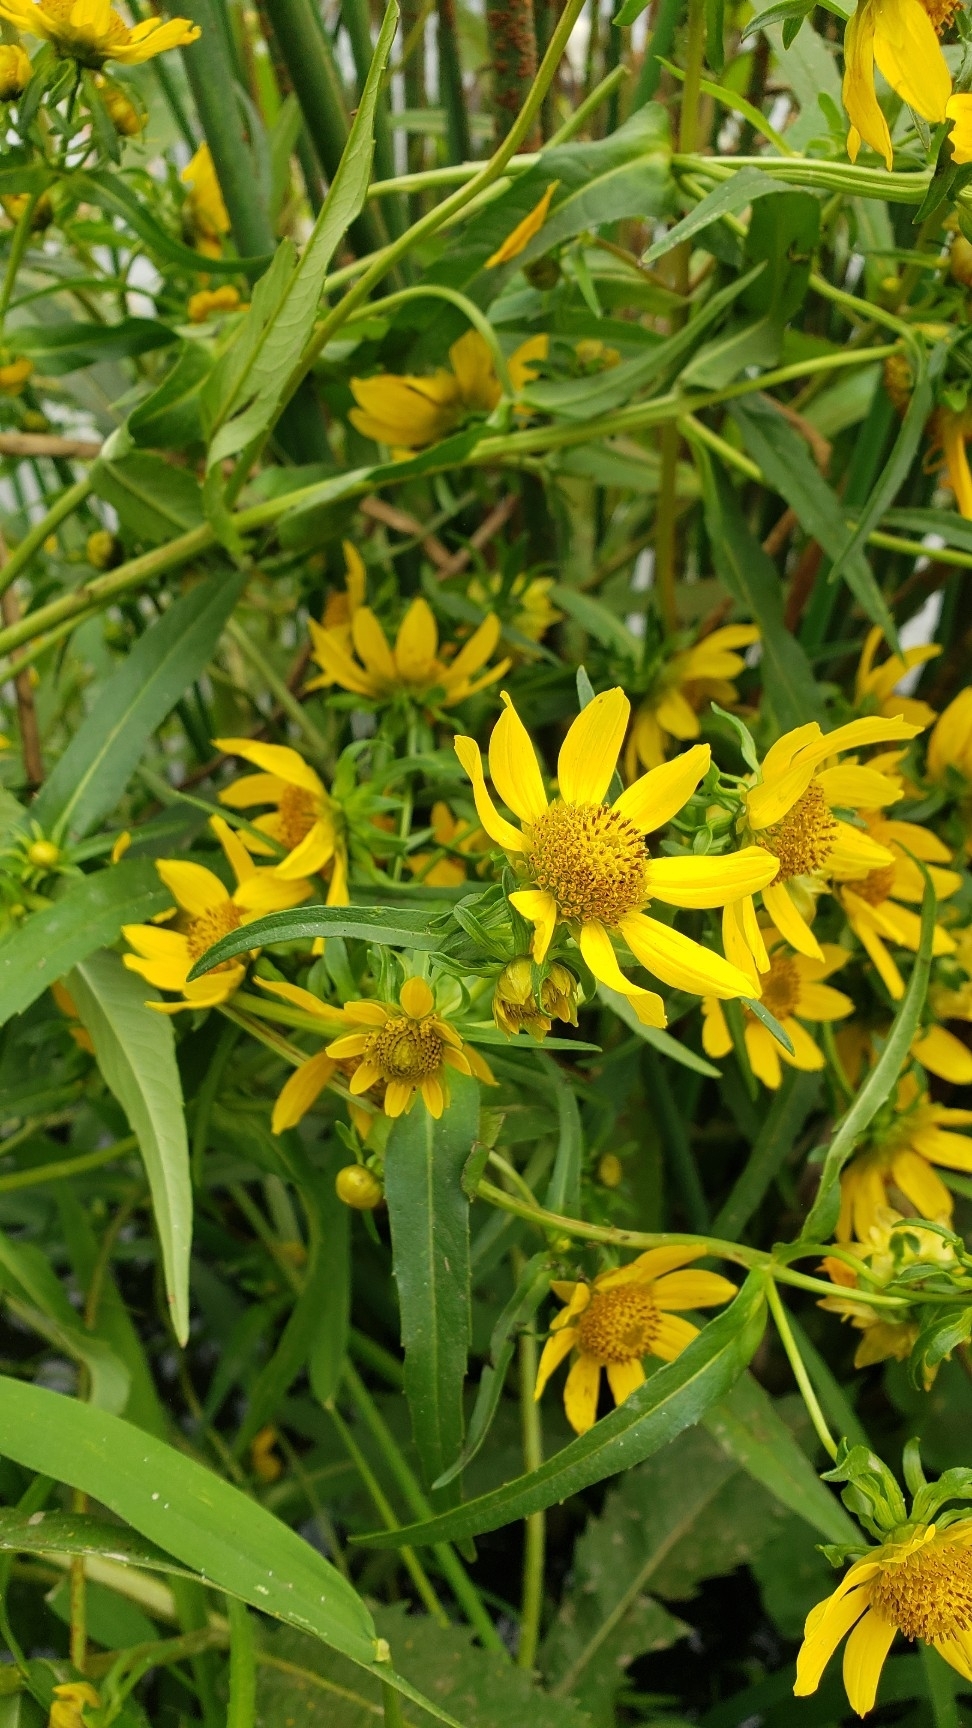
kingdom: Plantae
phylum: Tracheophyta
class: Magnoliopsida
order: Asterales
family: Asteraceae
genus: Bidens
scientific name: Bidens cernua
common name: Nodding bur-marigold
